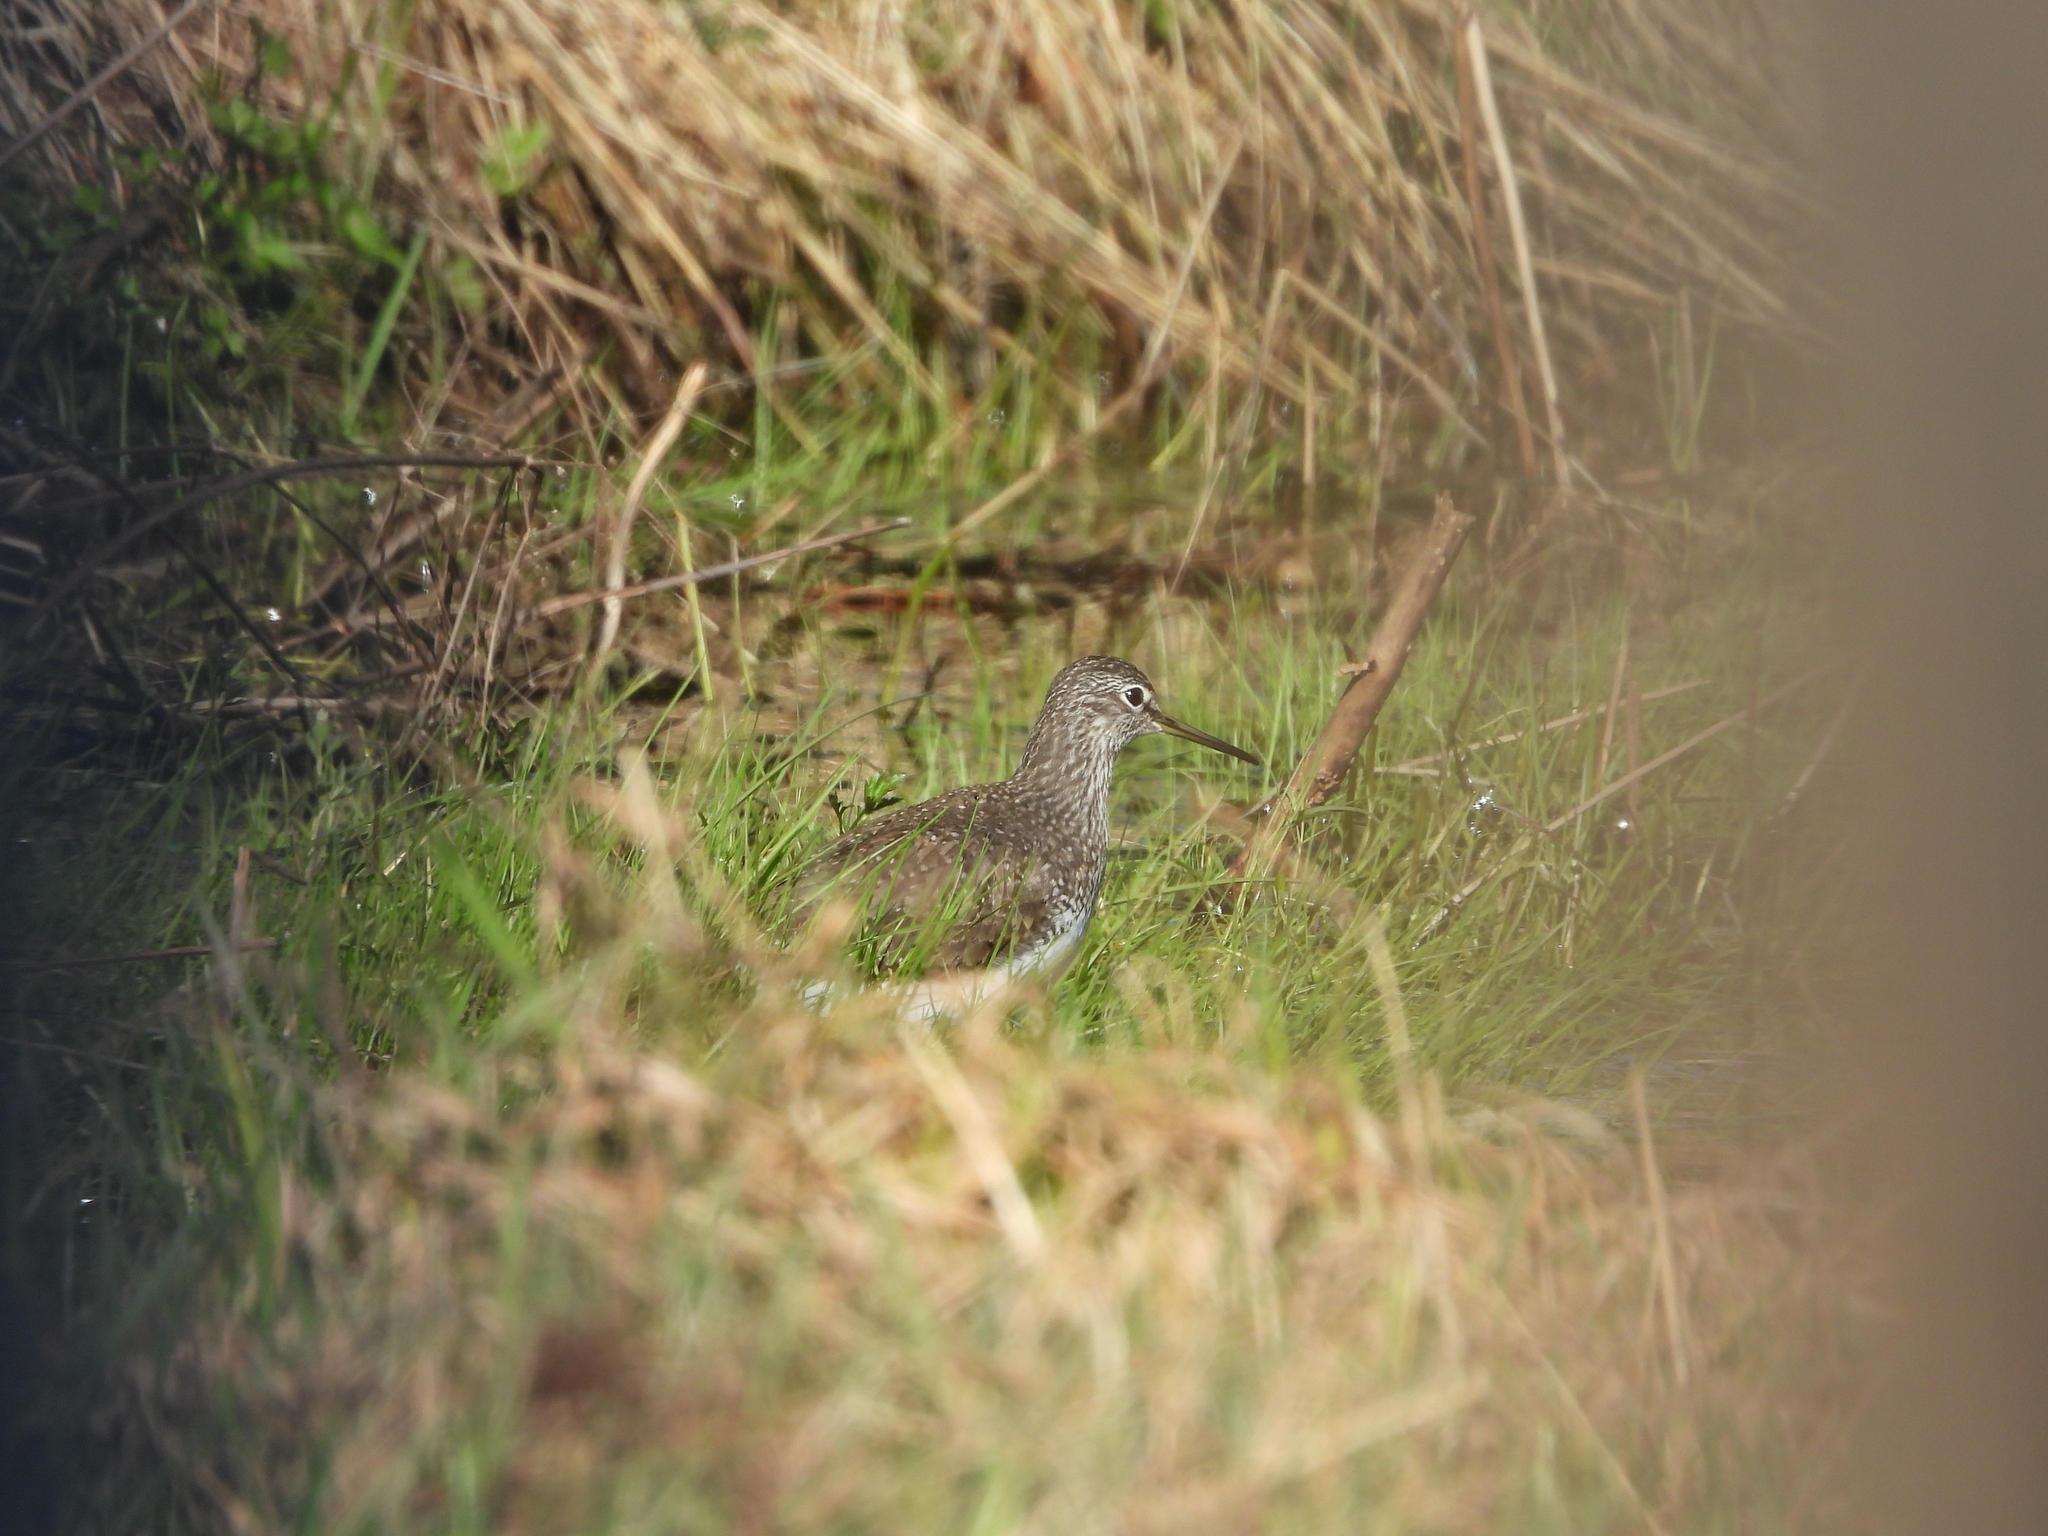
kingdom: Animalia
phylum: Chordata
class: Aves
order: Charadriiformes
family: Scolopacidae
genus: Tringa
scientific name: Tringa ochropus
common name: Green sandpiper
